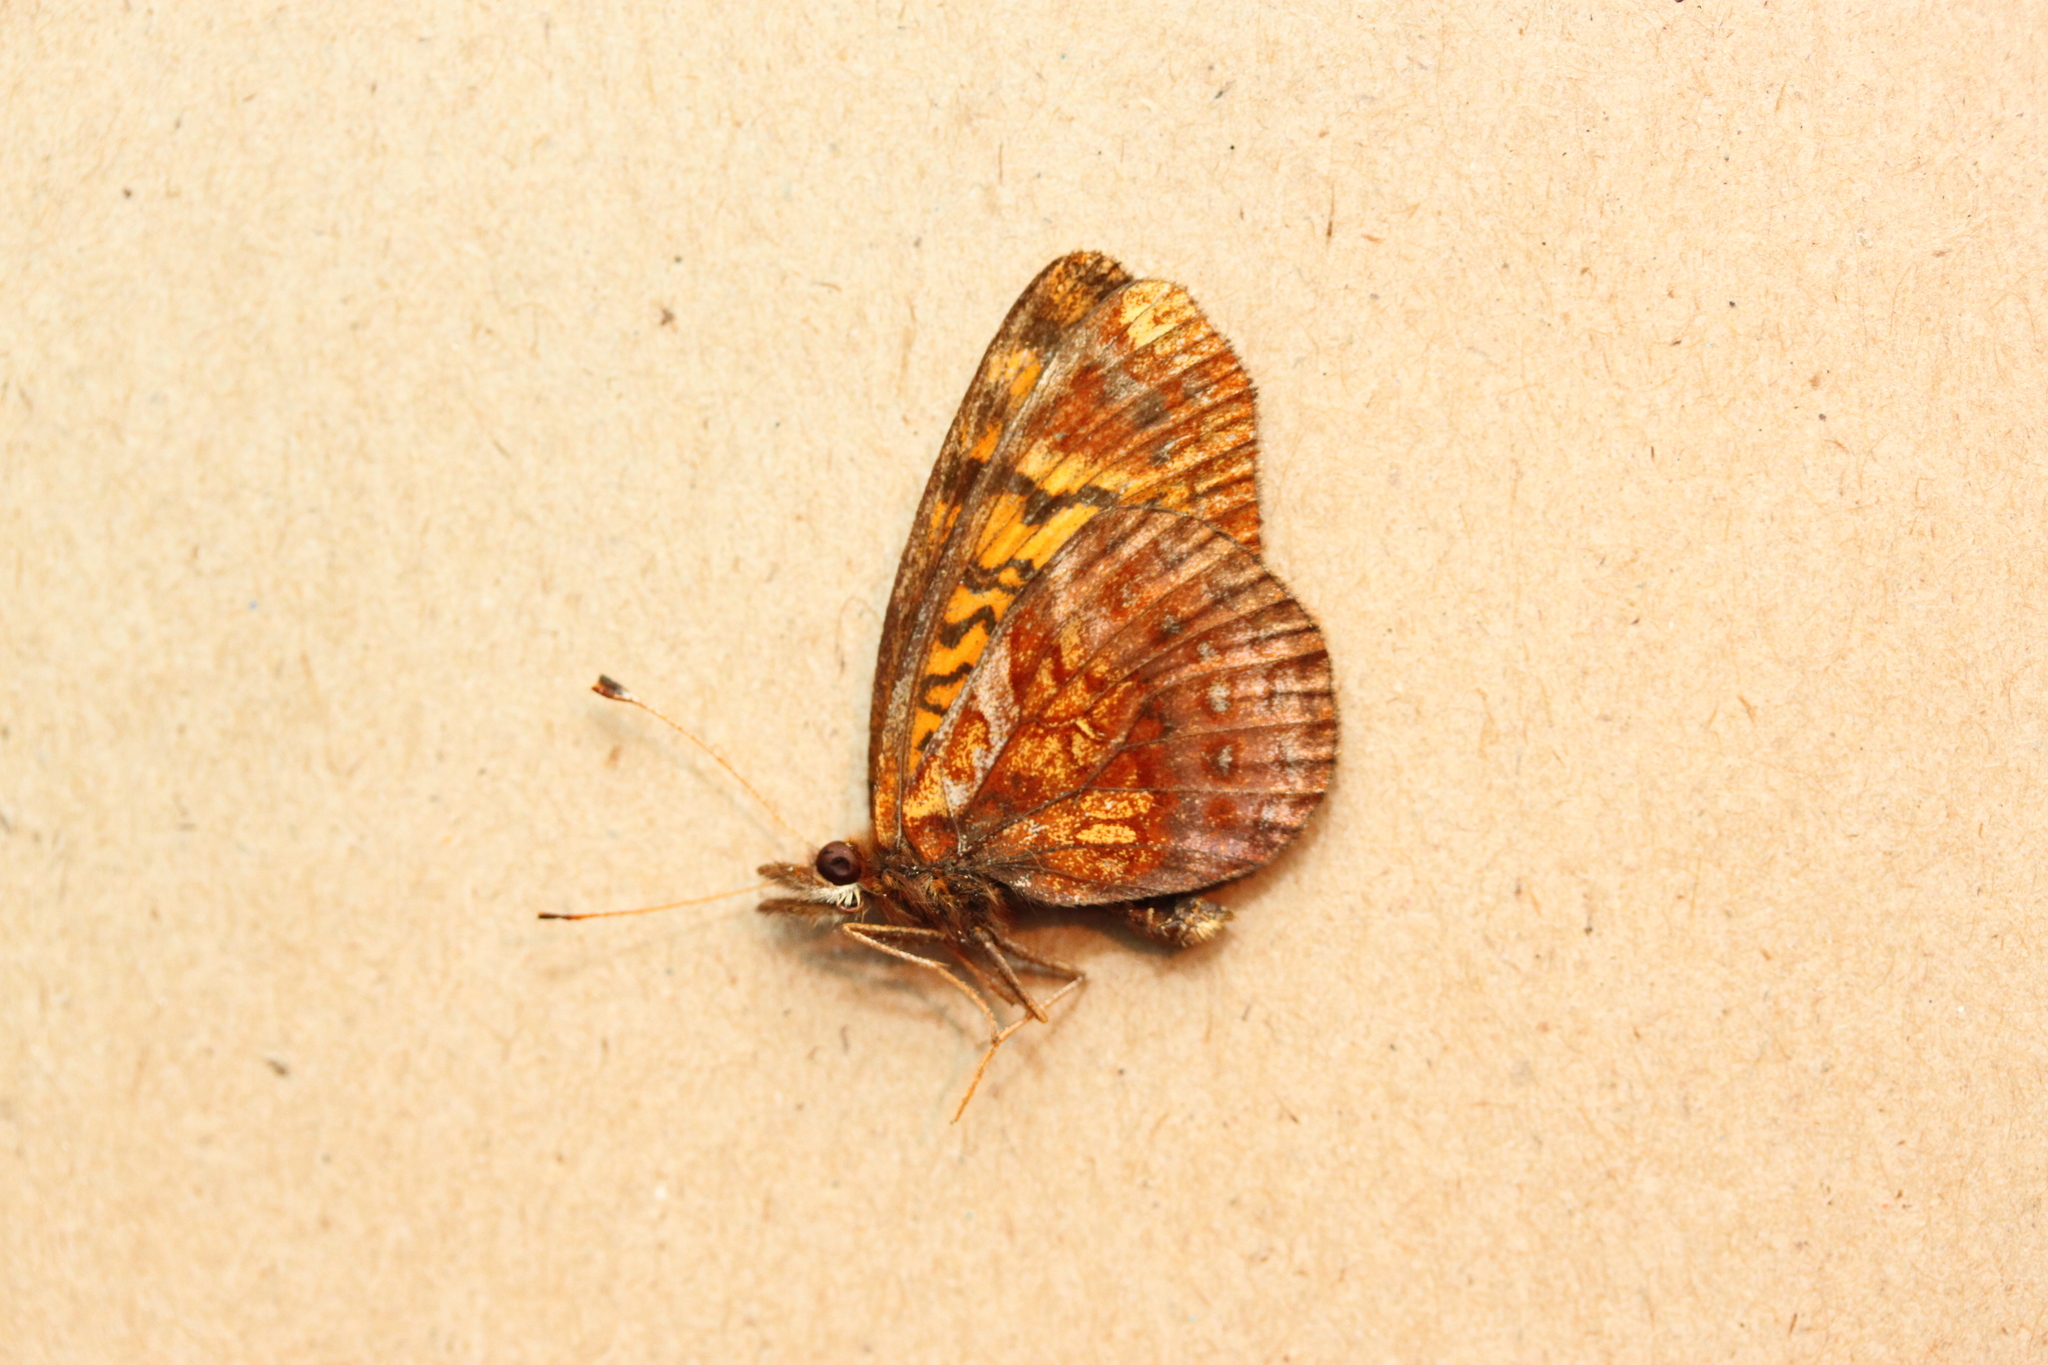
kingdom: Animalia
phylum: Arthropoda
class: Insecta
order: Lepidoptera
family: Nymphalidae
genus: Clossiana
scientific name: Clossiana toddi
